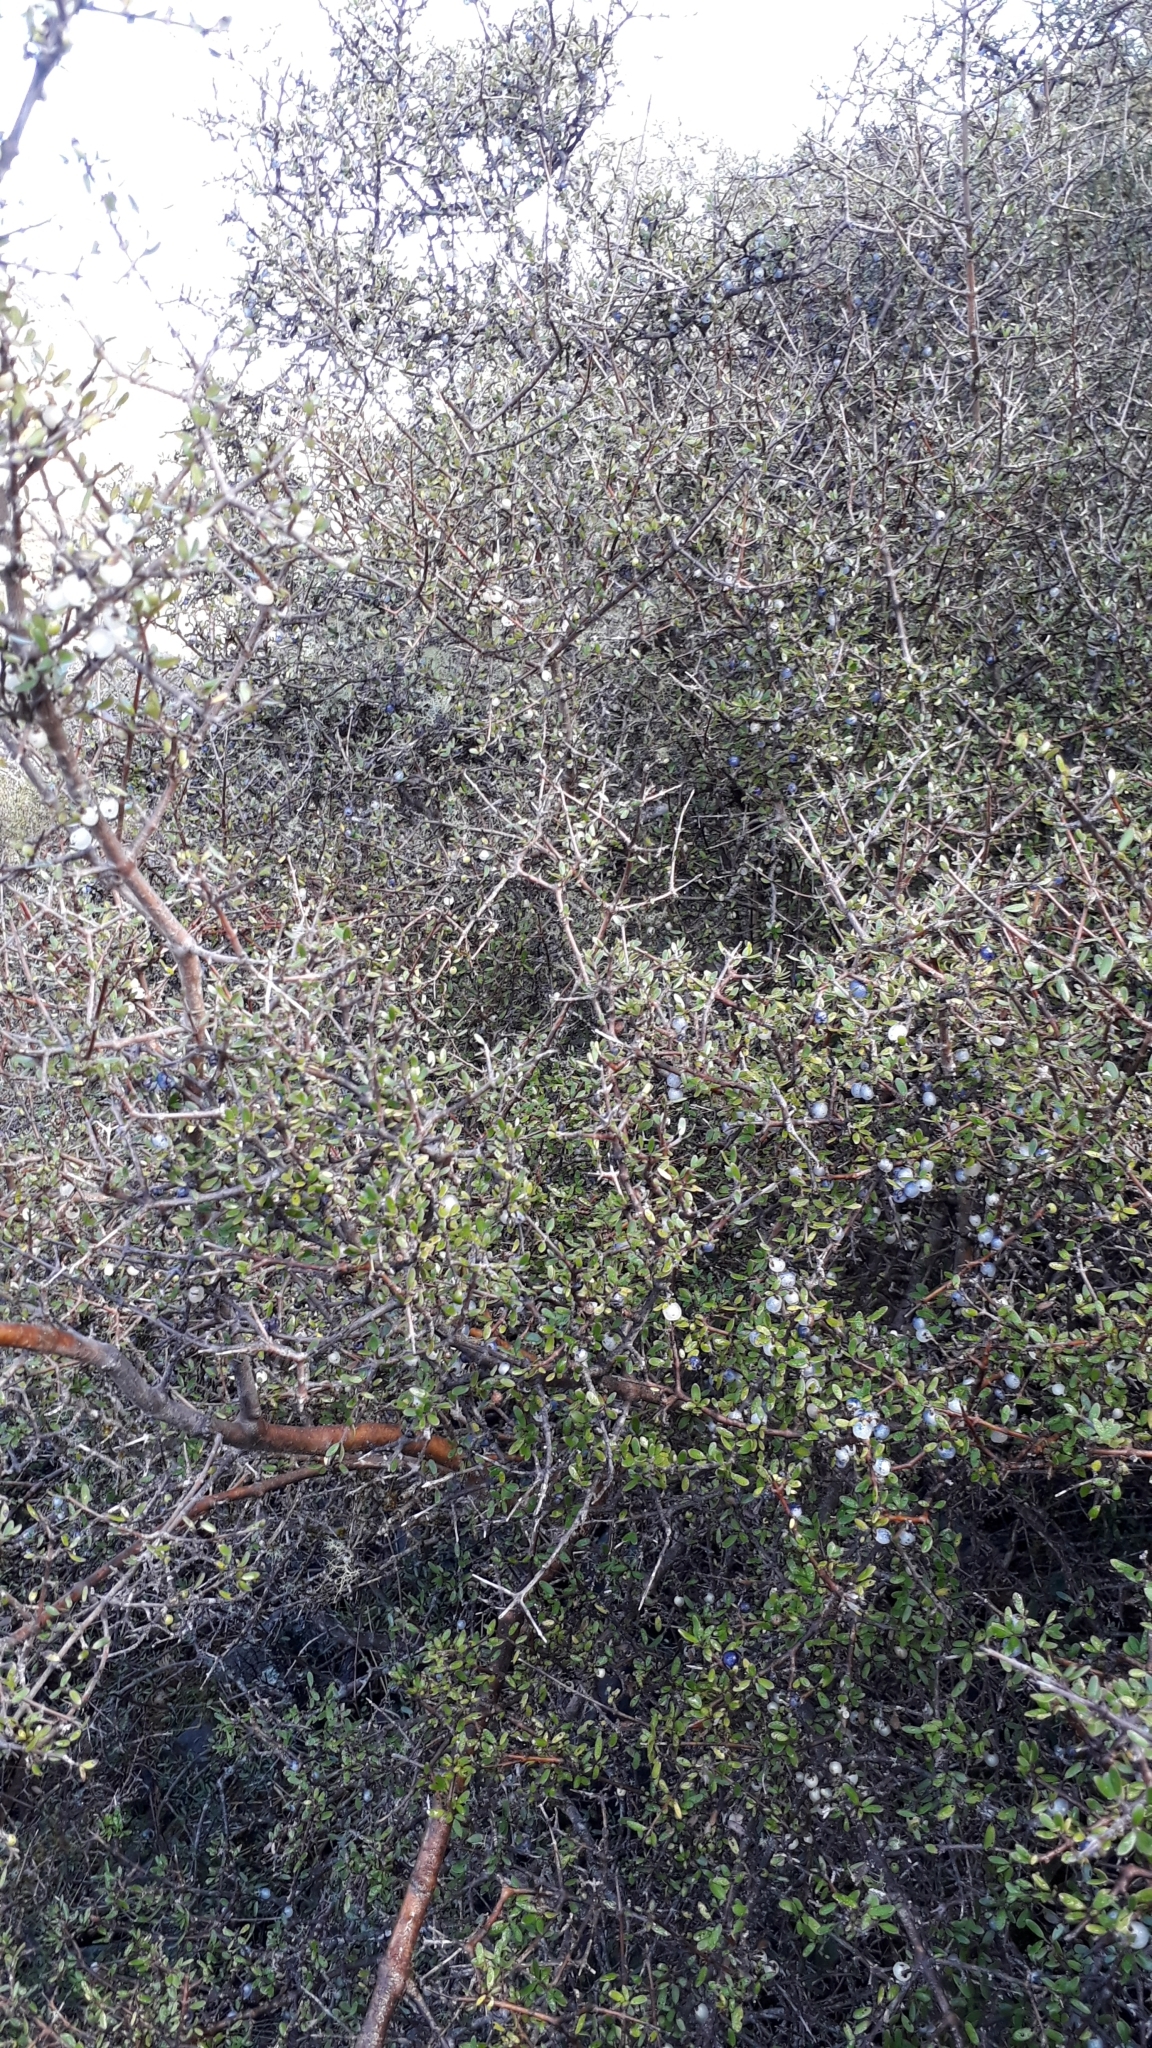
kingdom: Plantae
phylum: Tracheophyta
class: Magnoliopsida
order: Gentianales
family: Rubiaceae
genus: Coprosma
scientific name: Coprosma propinqua
